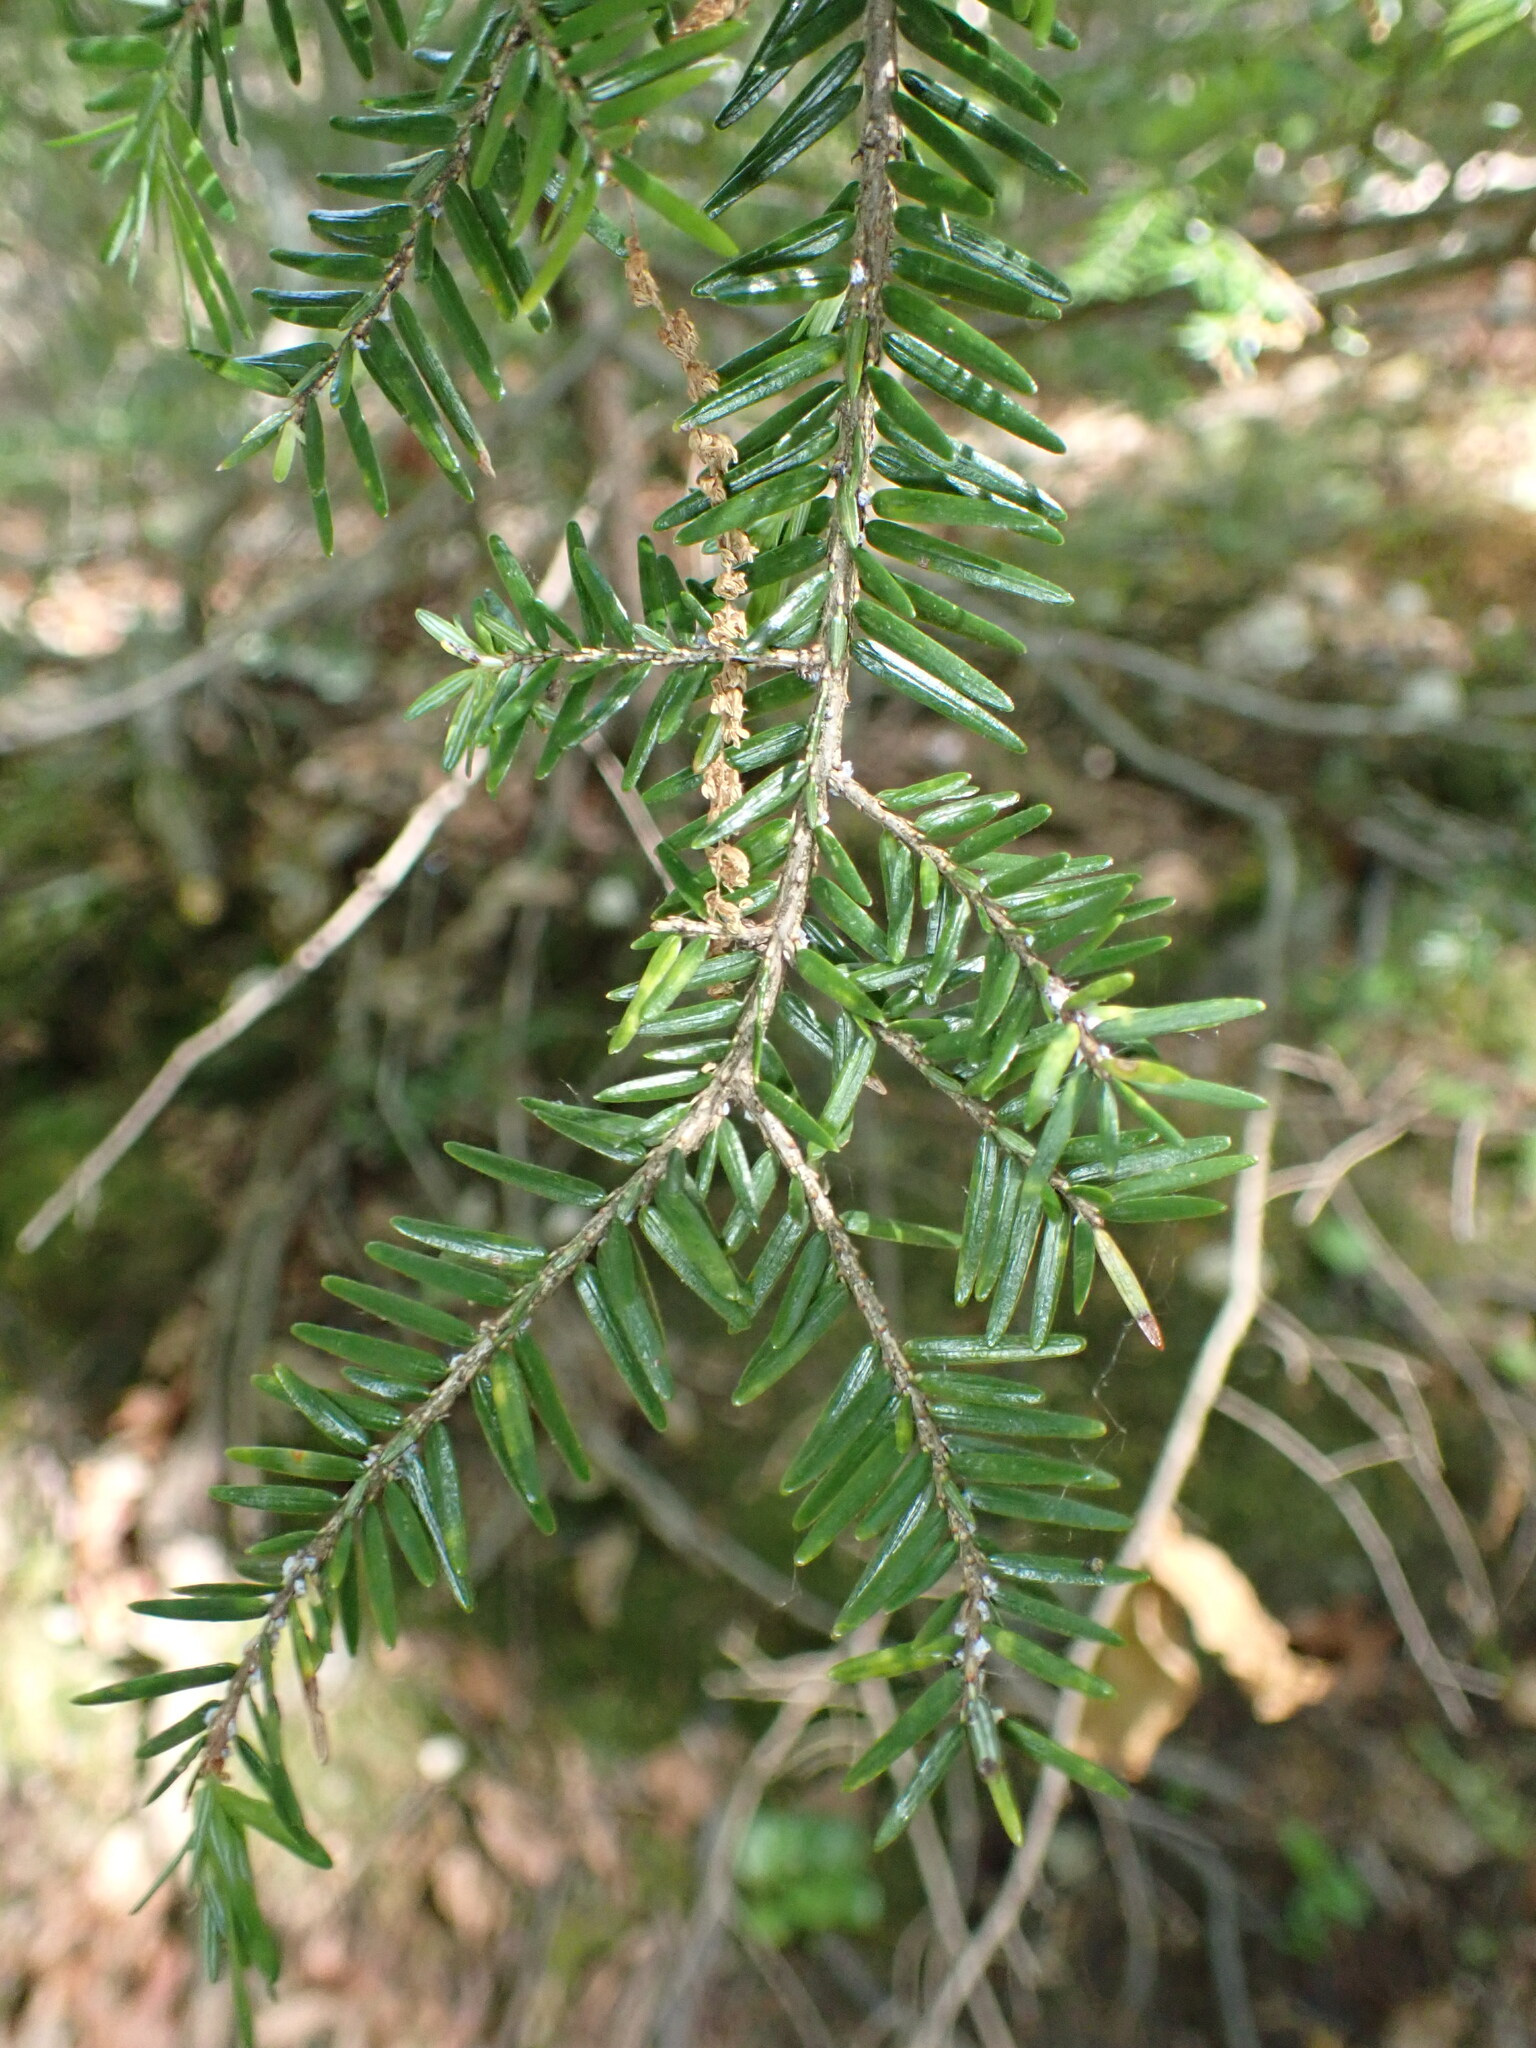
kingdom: Plantae
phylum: Tracheophyta
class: Pinopsida
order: Pinales
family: Pinaceae
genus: Tsuga
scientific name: Tsuga canadensis
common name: Eastern hemlock
